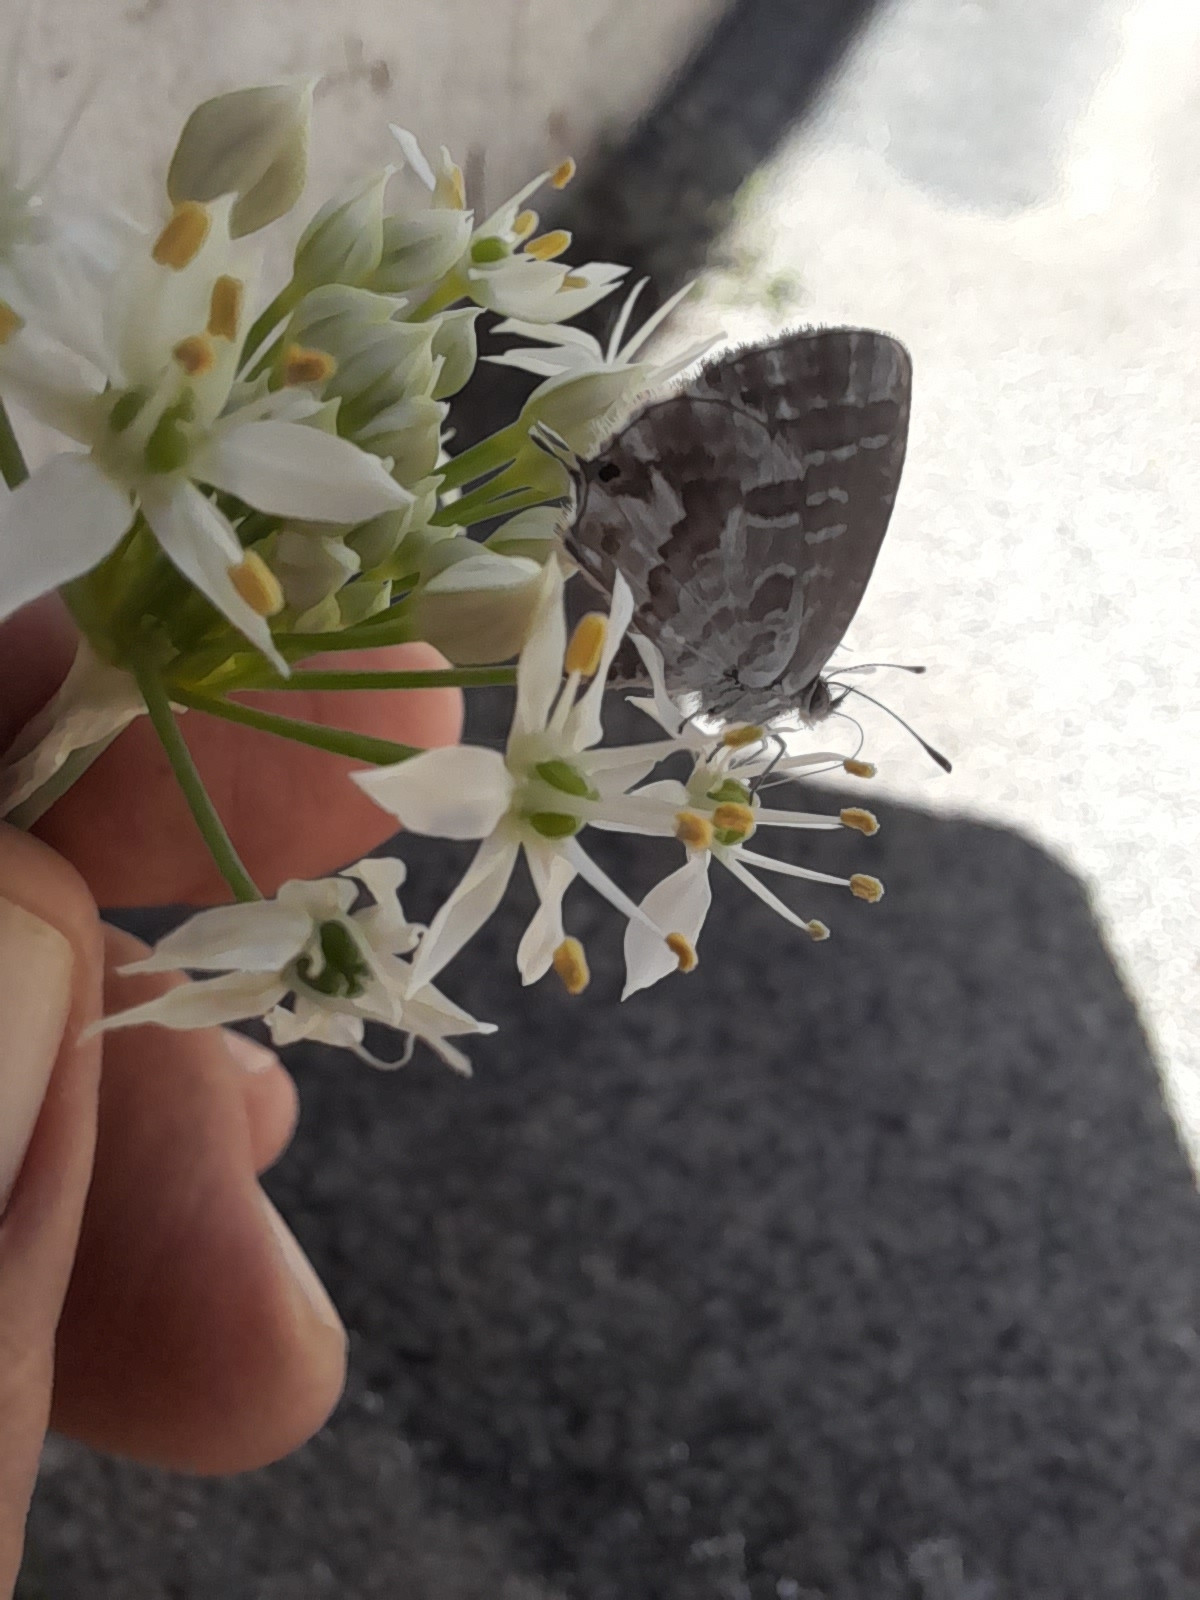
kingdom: Animalia
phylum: Arthropoda
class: Insecta
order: Lepidoptera
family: Lycaenidae
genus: Cacyreus
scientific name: Cacyreus marshalli
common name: Geranium bronze
